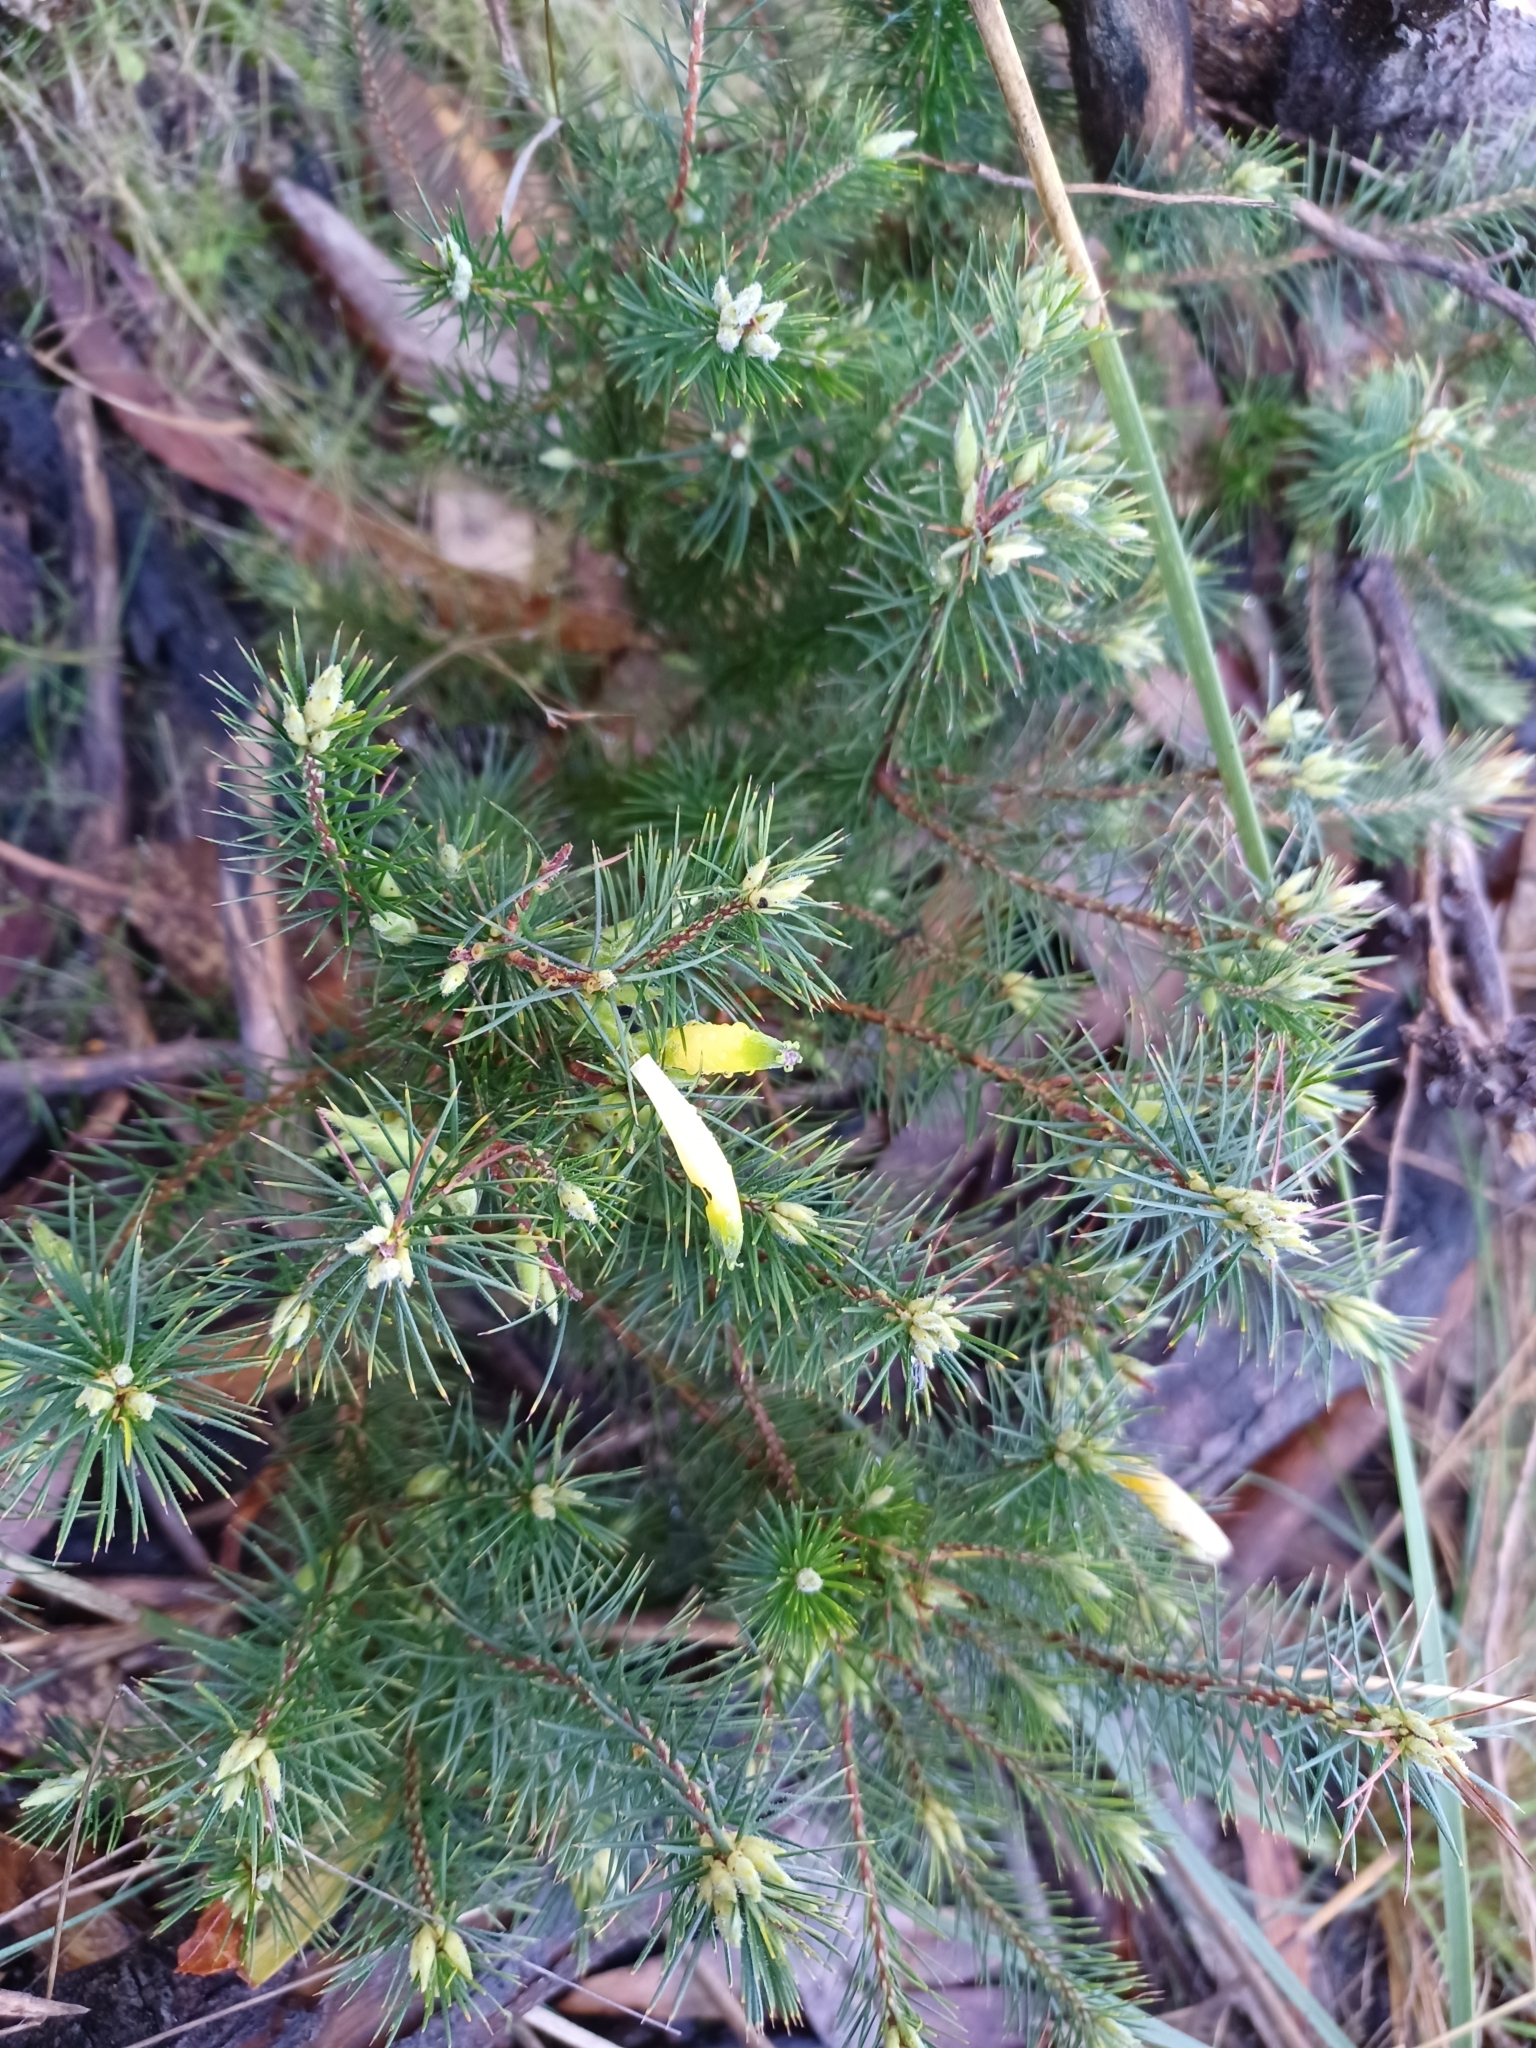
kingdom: Plantae
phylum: Tracheophyta
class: Magnoliopsida
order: Ericales
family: Ericaceae
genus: Stenanthera
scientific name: Stenanthera pinifolia
